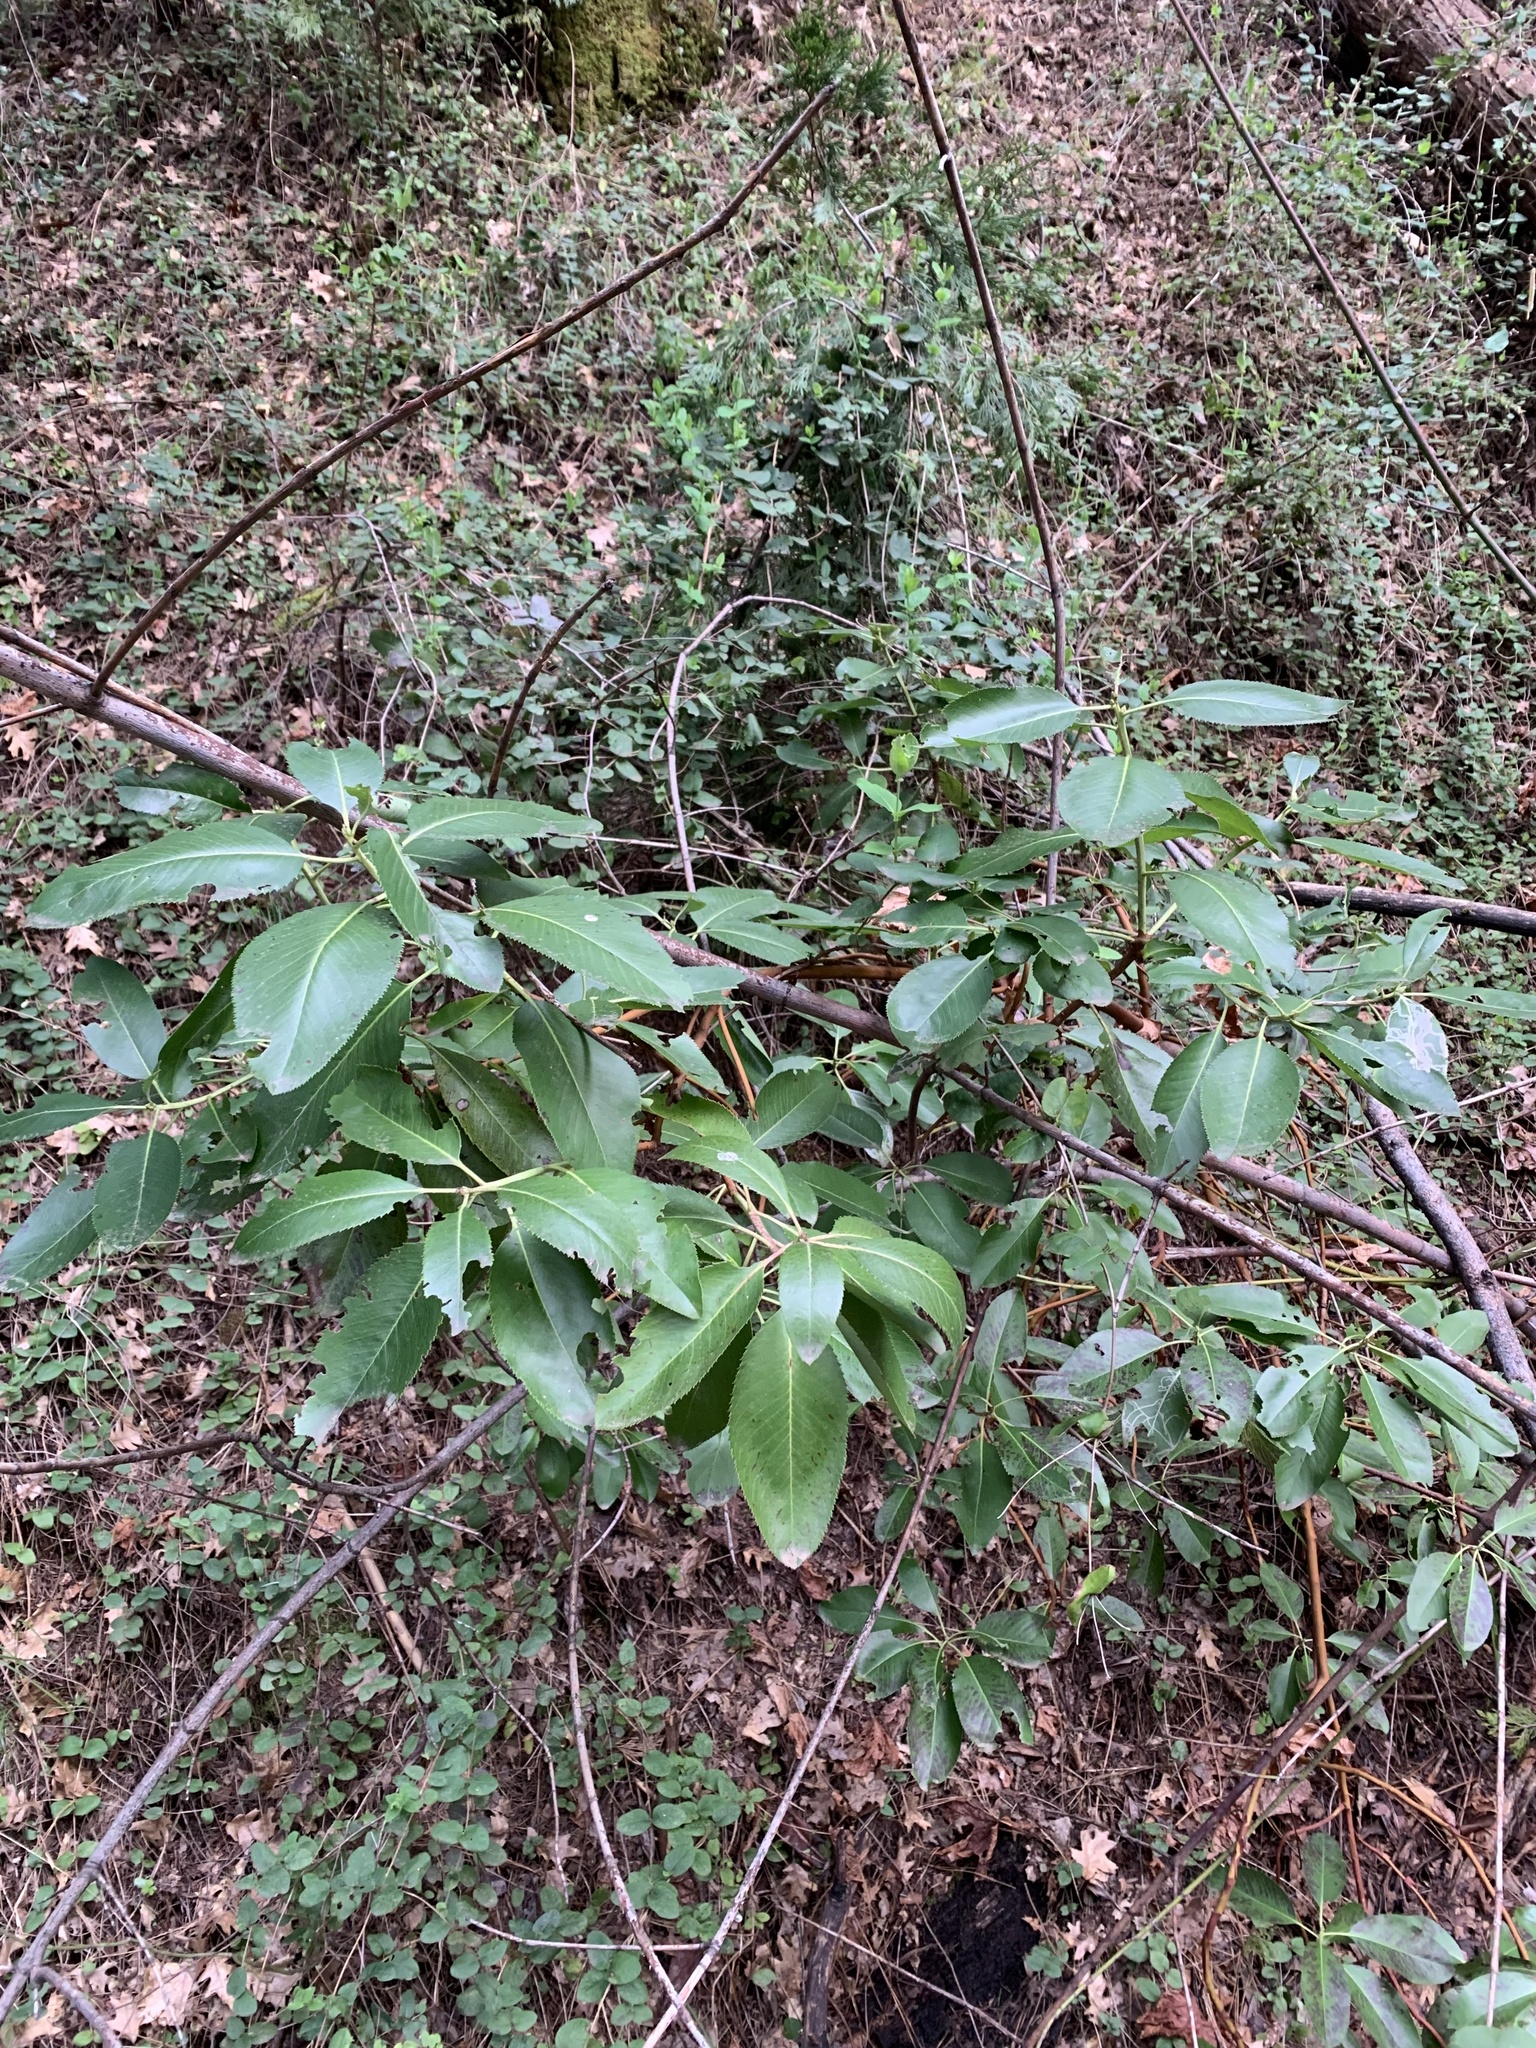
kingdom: Plantae
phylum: Tracheophyta
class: Magnoliopsida
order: Ericales
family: Ericaceae
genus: Arbutus
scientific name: Arbutus menziesii
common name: Pacific madrone
